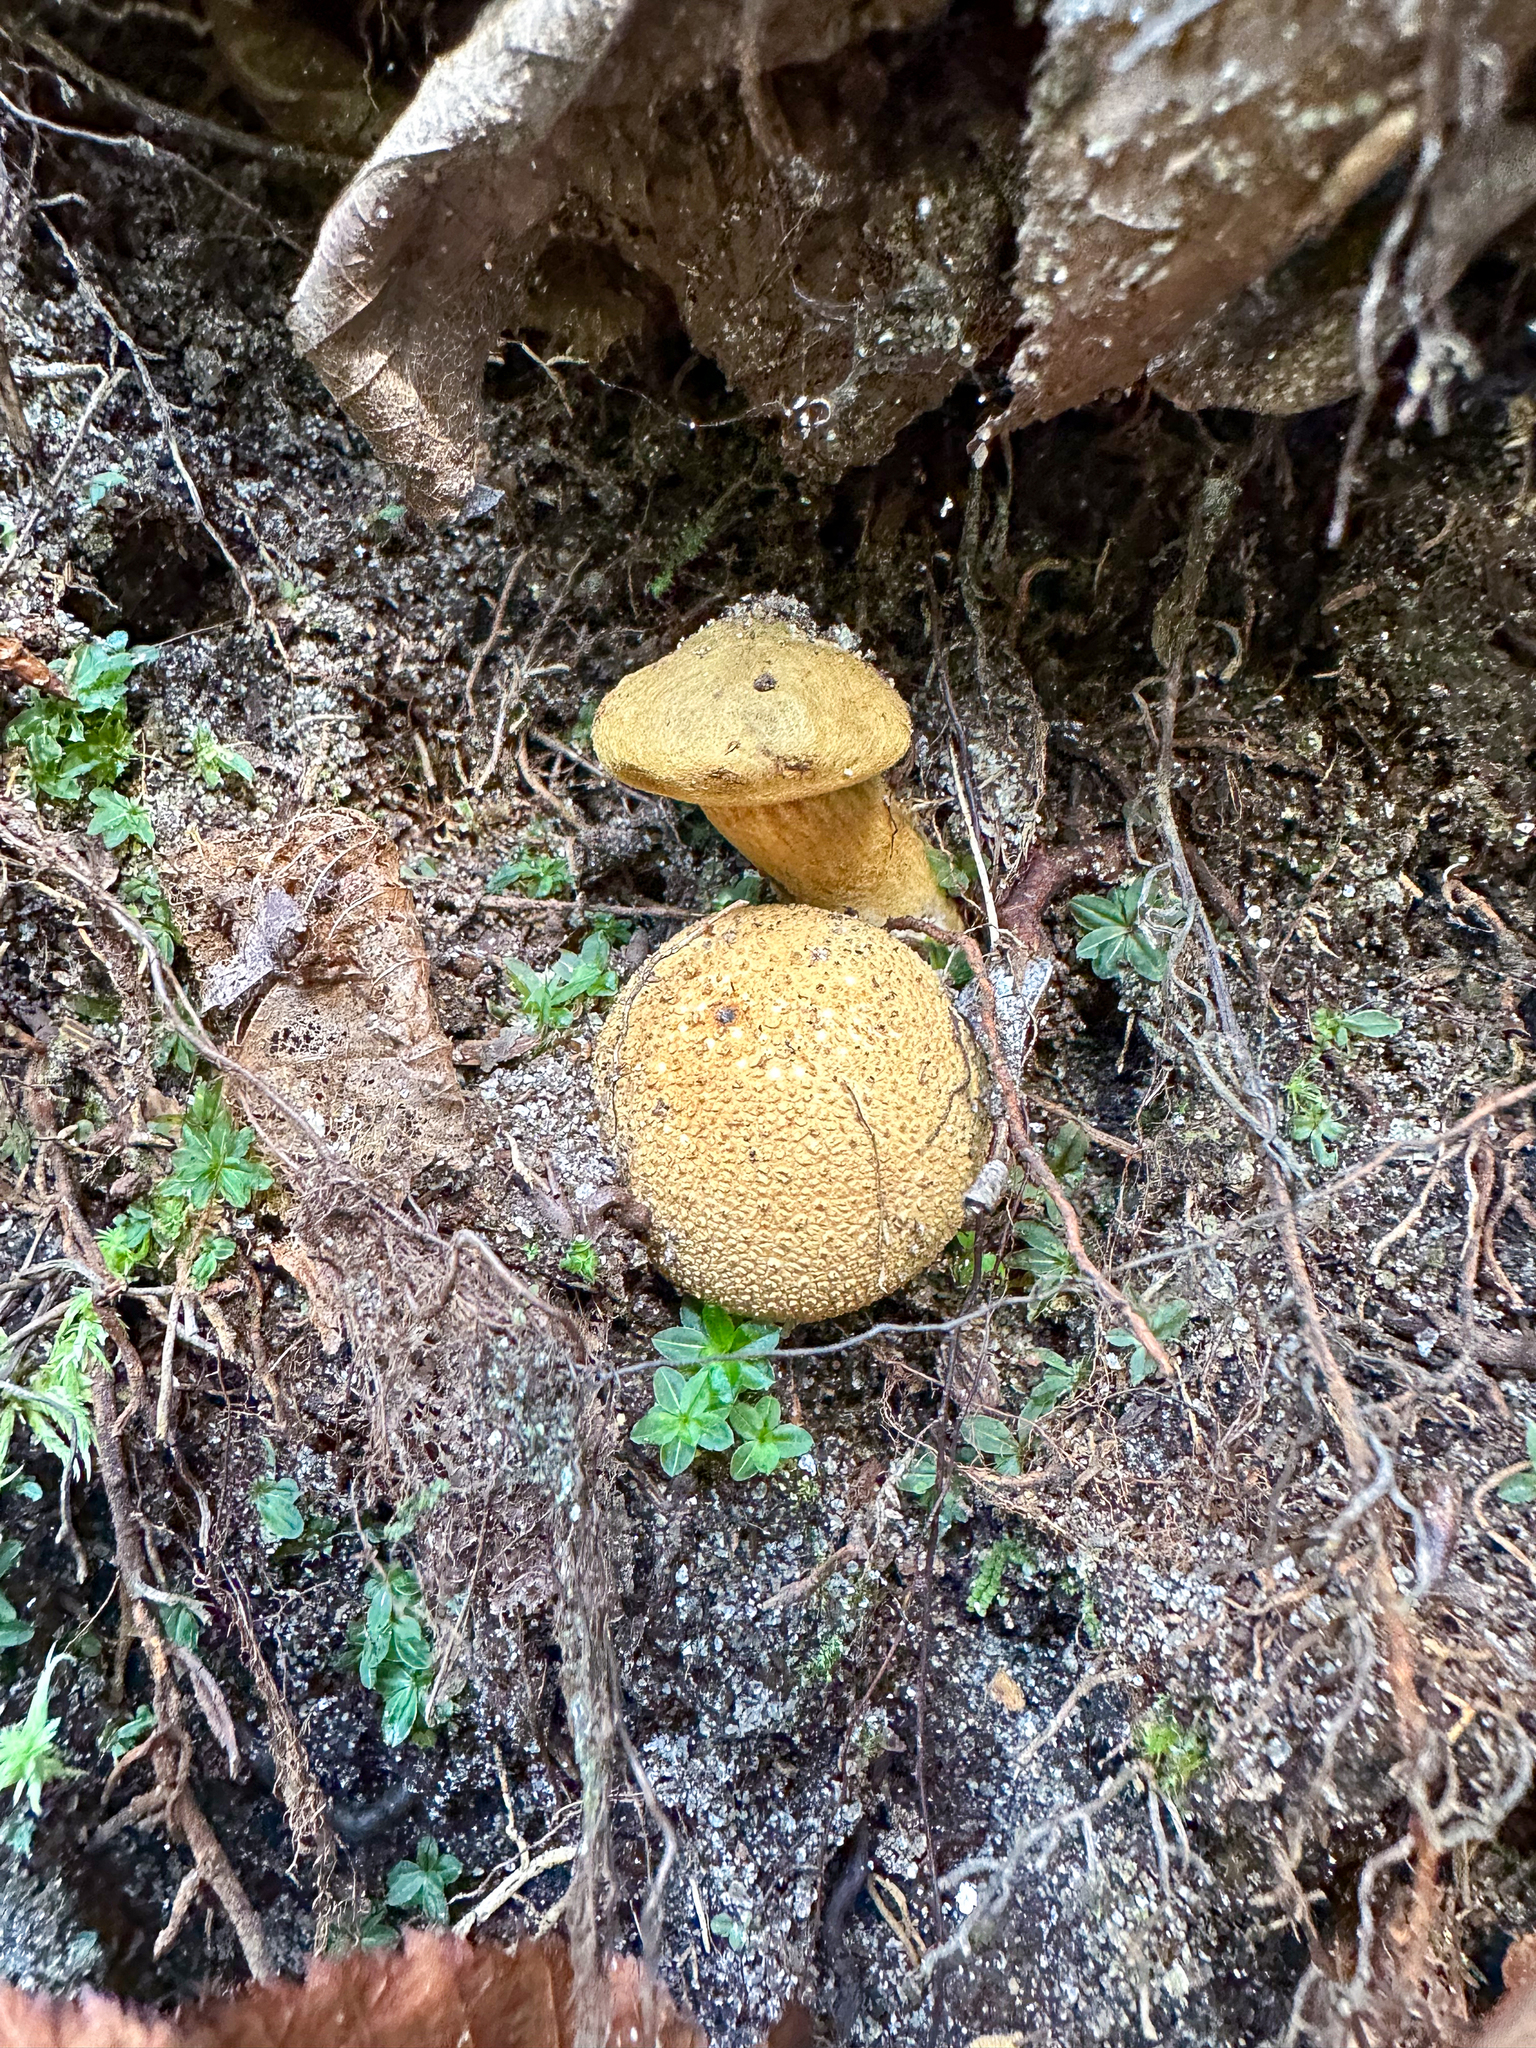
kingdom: Fungi
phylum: Basidiomycota
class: Agaricomycetes
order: Boletales
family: Boletaceae
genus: Pseudoboletus
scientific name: Pseudoboletus parasiticus
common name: Parasitic bolete
